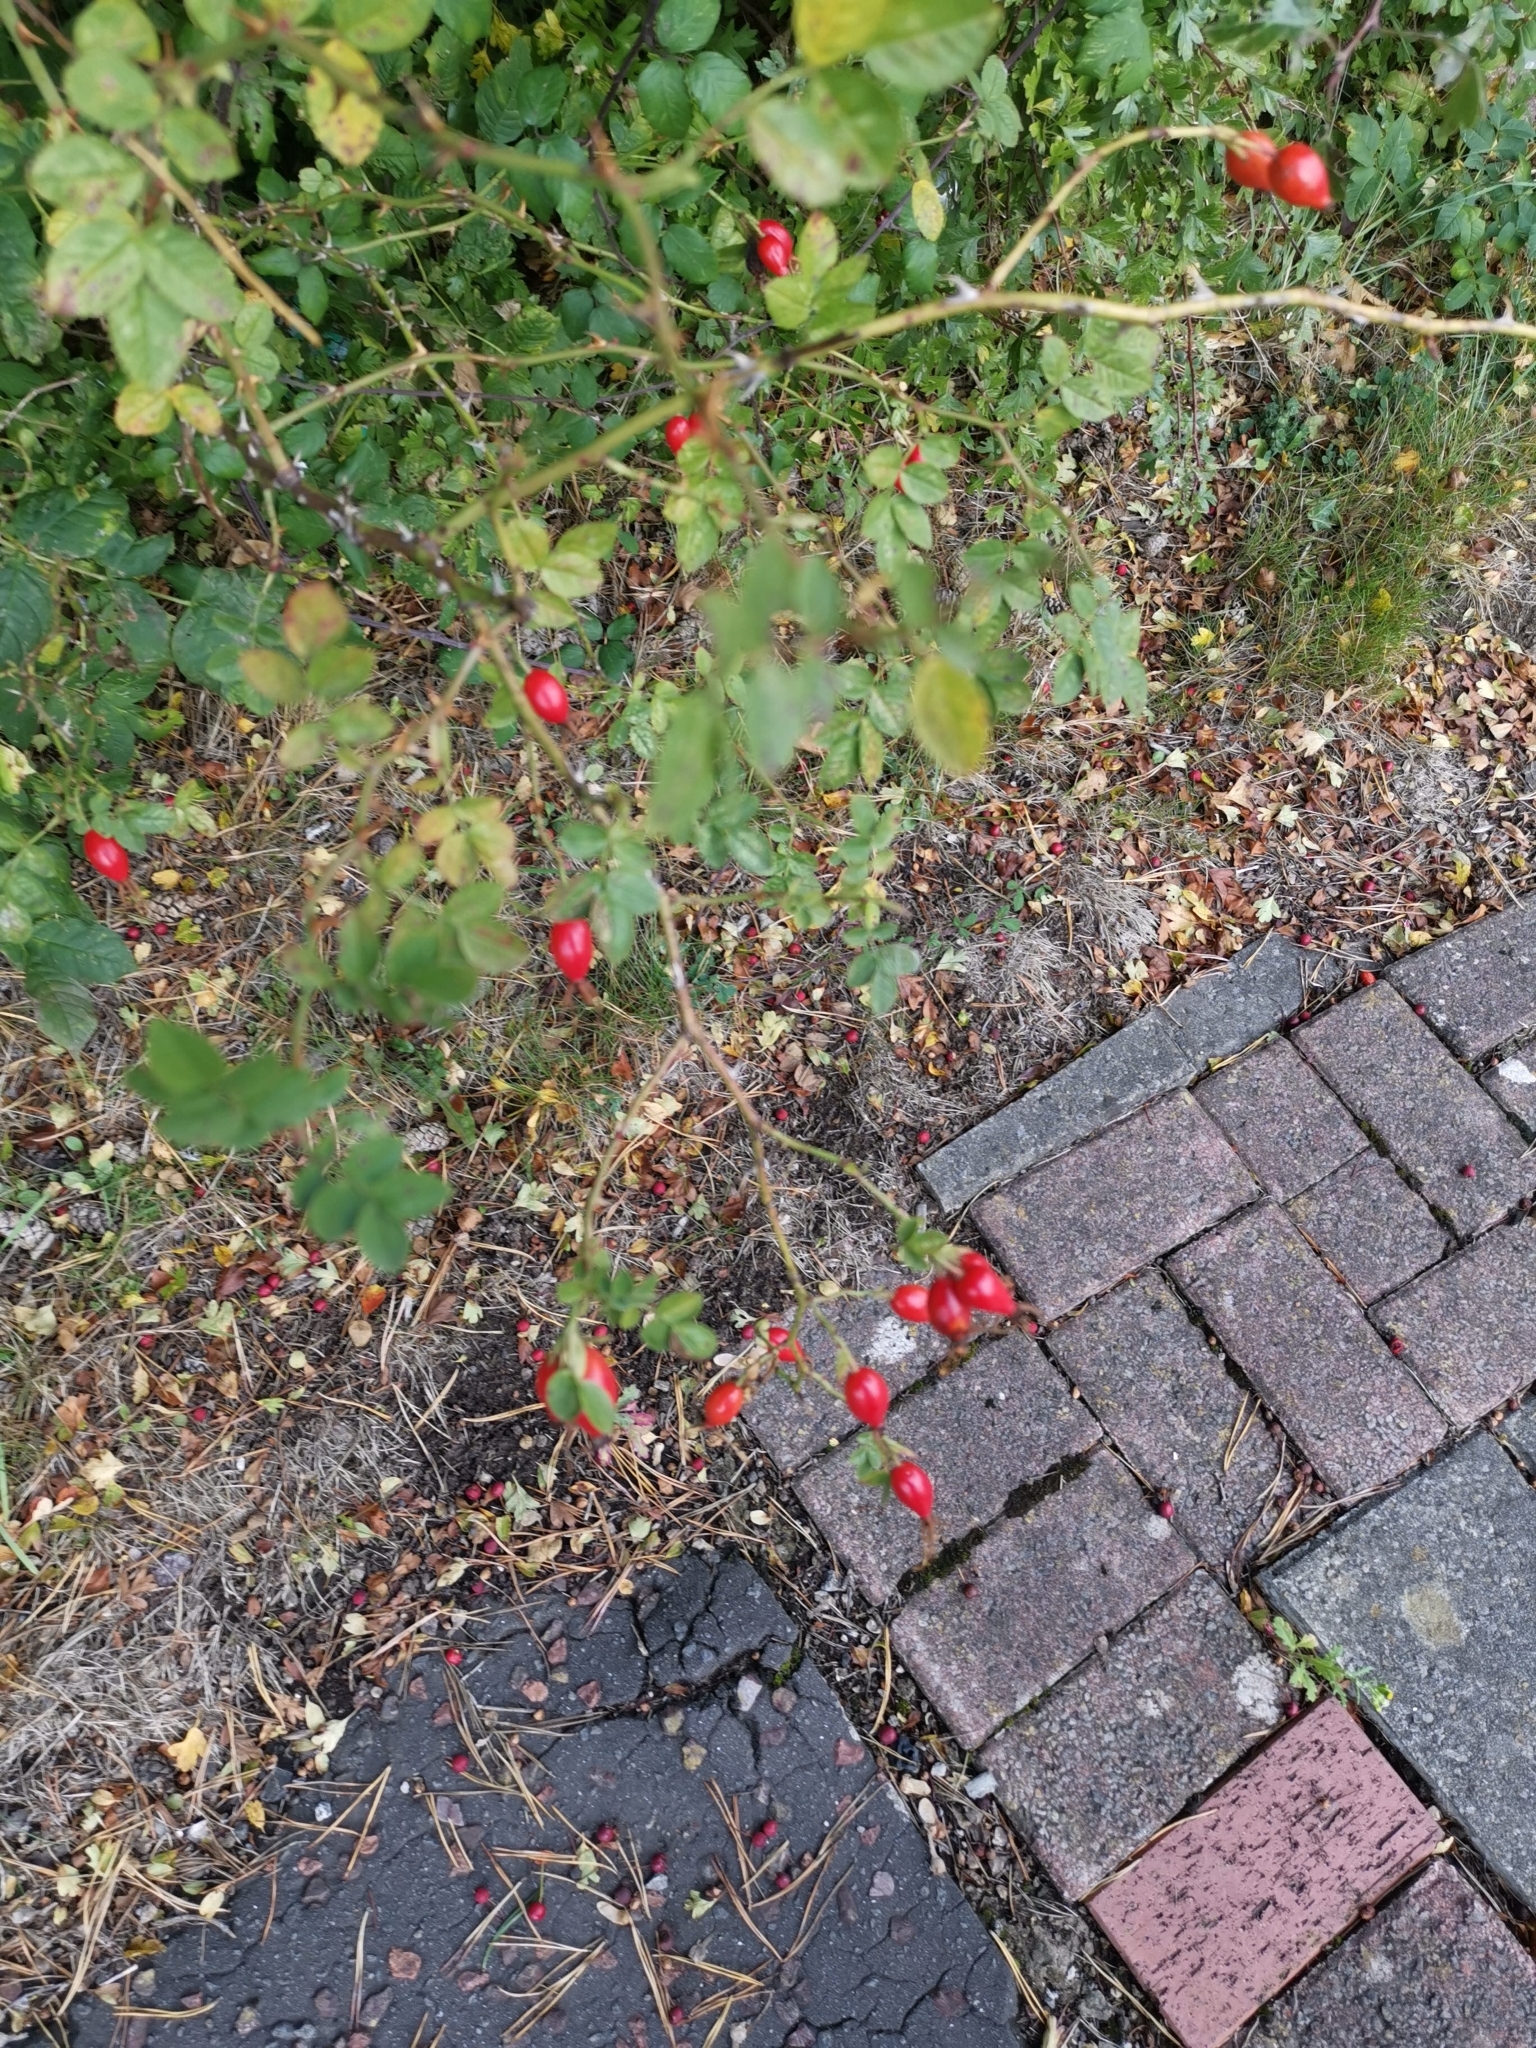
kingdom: Plantae
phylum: Tracheophyta
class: Magnoliopsida
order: Rosales
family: Rosaceae
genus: Rosa
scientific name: Rosa canina
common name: Dog rose
